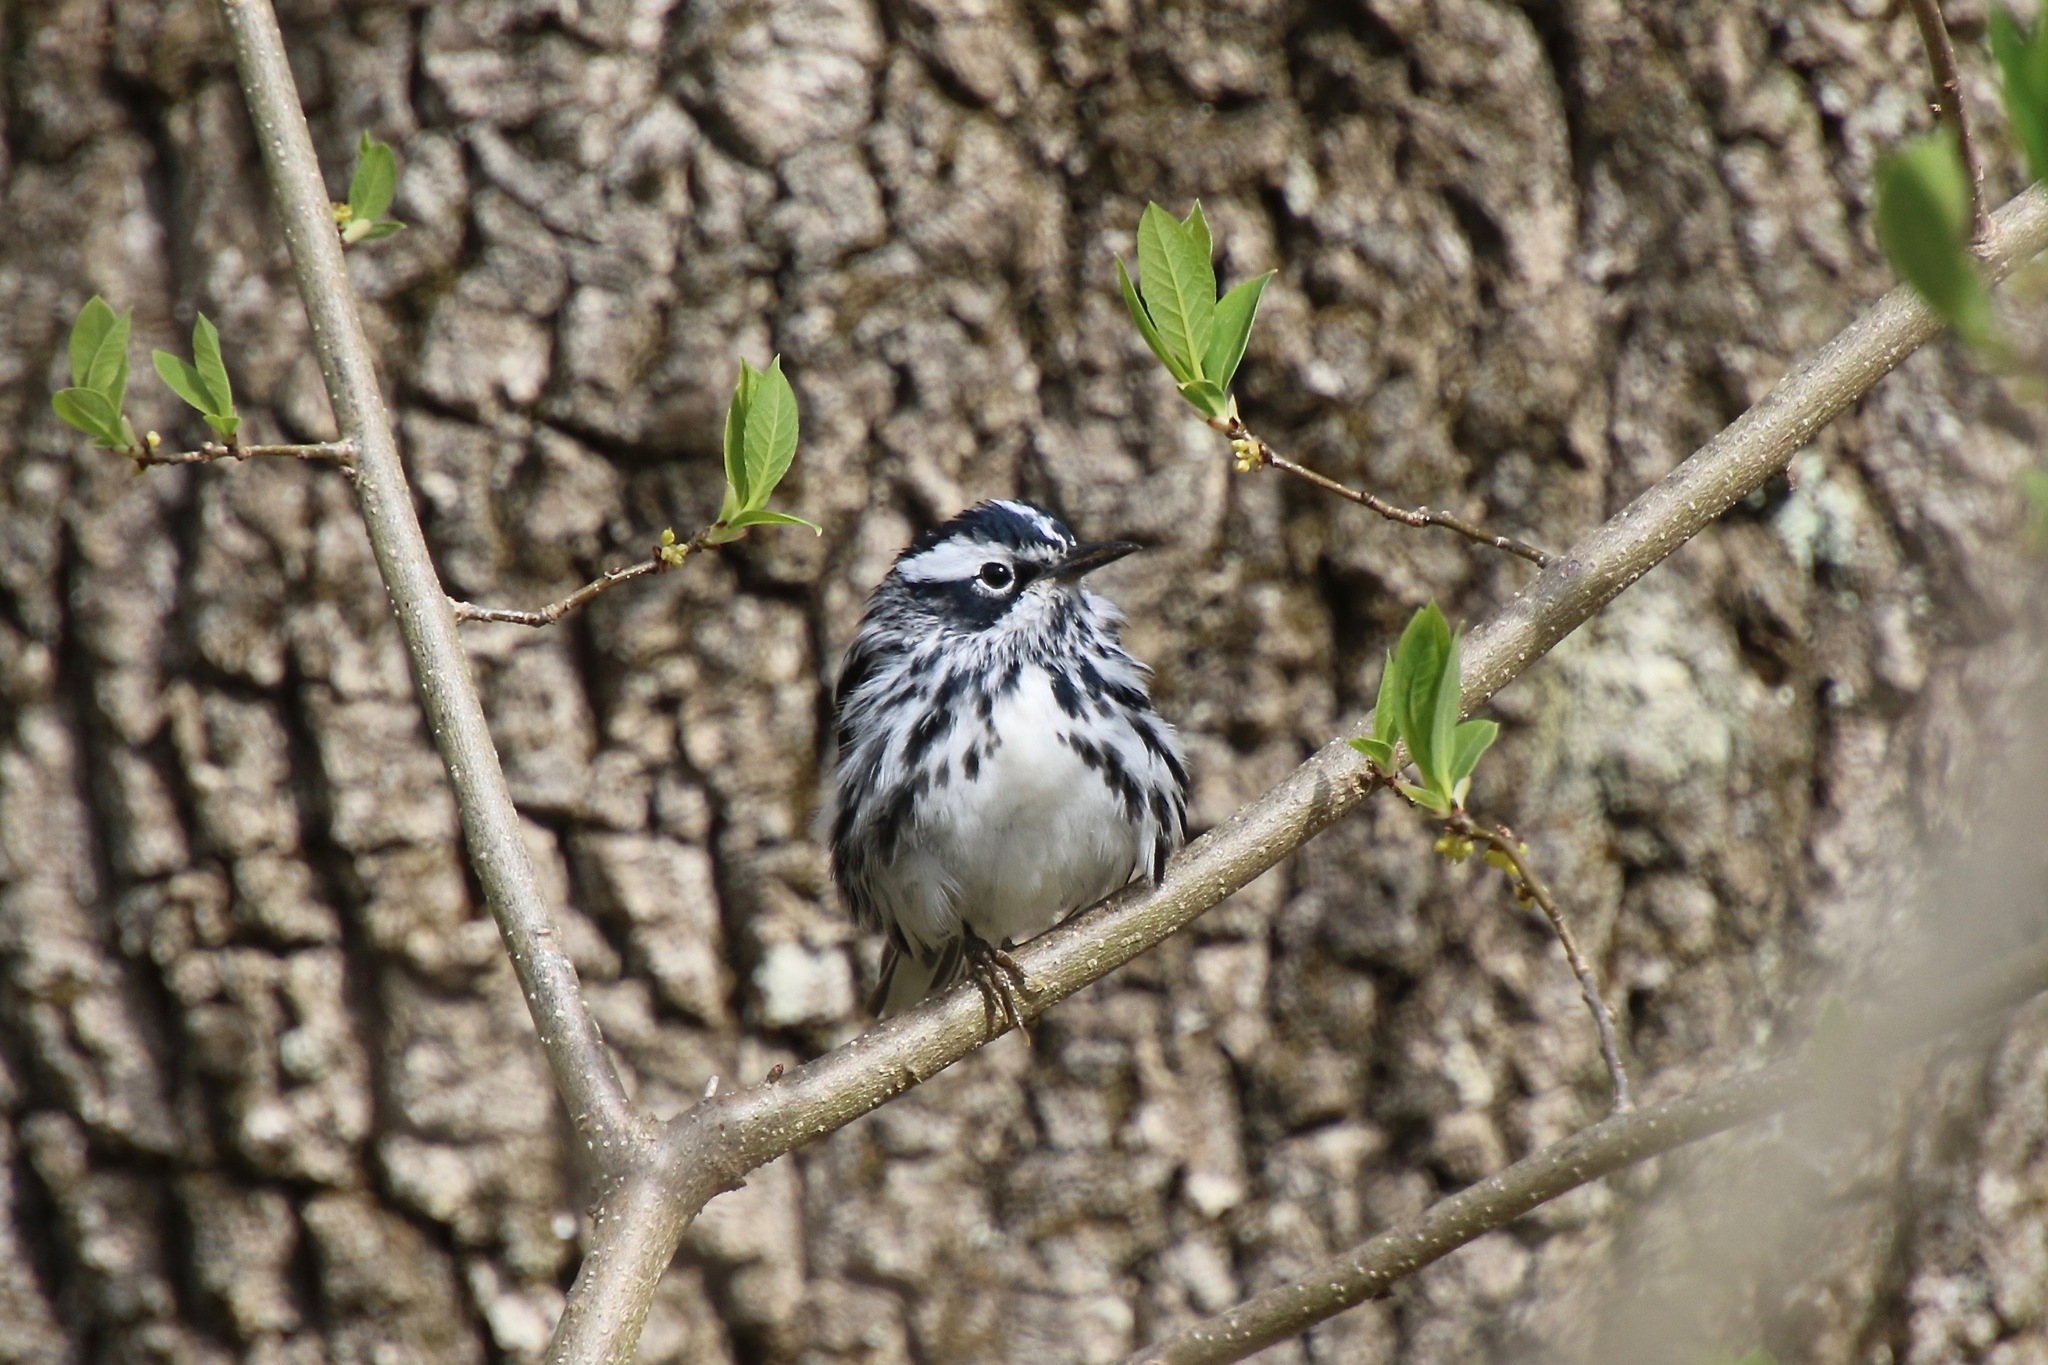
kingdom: Animalia
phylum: Chordata
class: Aves
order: Passeriformes
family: Parulidae
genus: Mniotilta
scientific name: Mniotilta varia
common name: Black-and-white warbler
